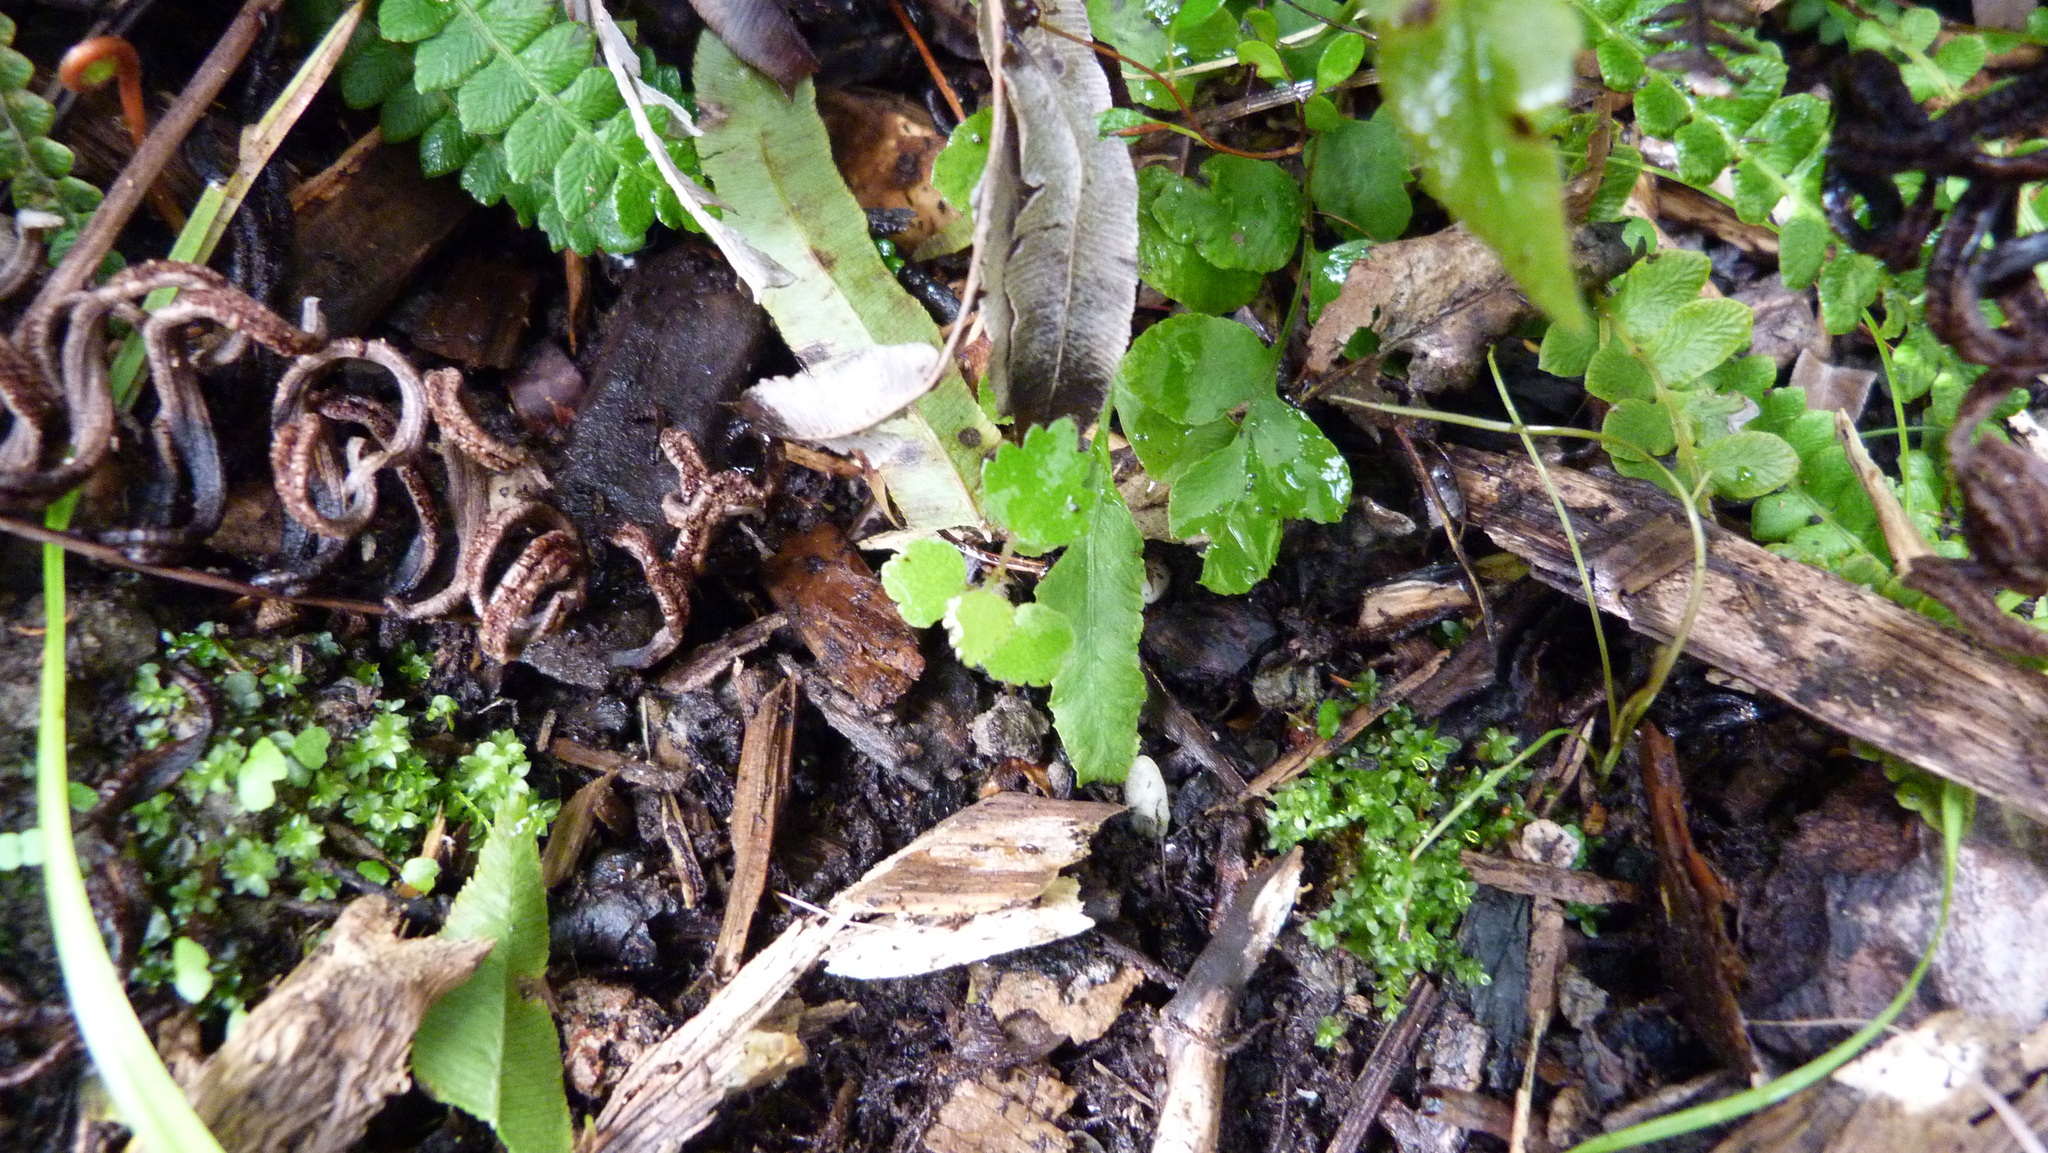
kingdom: Plantae
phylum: Tracheophyta
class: Magnoliopsida
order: Malvales
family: Malvaceae
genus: Plagianthus
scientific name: Plagianthus regius
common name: Manatu
